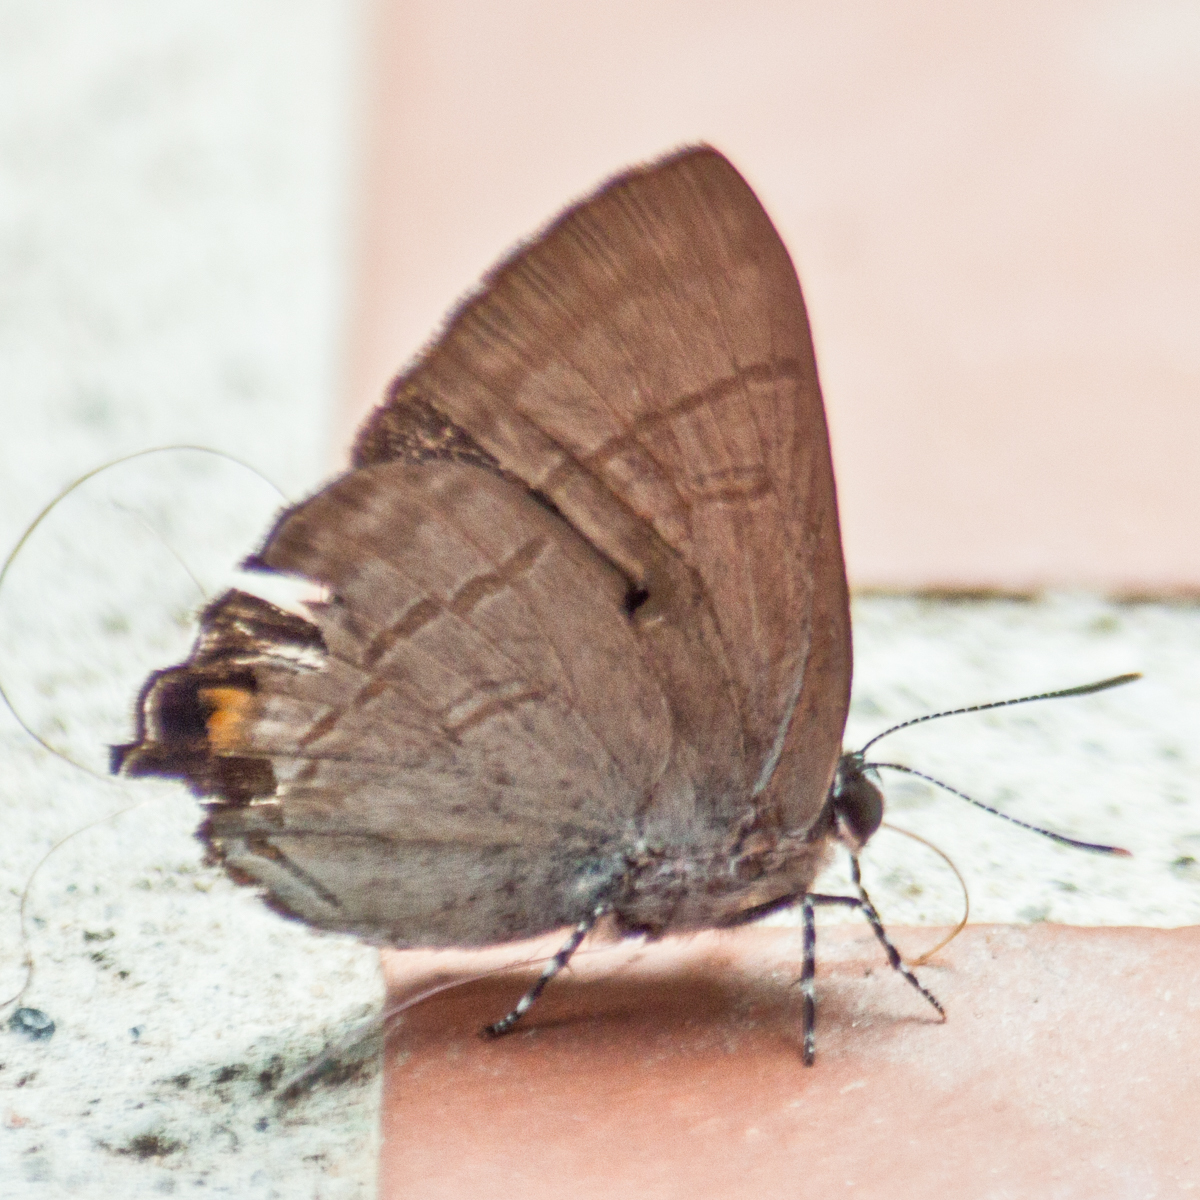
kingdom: Animalia
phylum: Arthropoda
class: Insecta
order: Lepidoptera
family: Lycaenidae
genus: Hypolycaena
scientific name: Hypolycaena erylus
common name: Common tit
